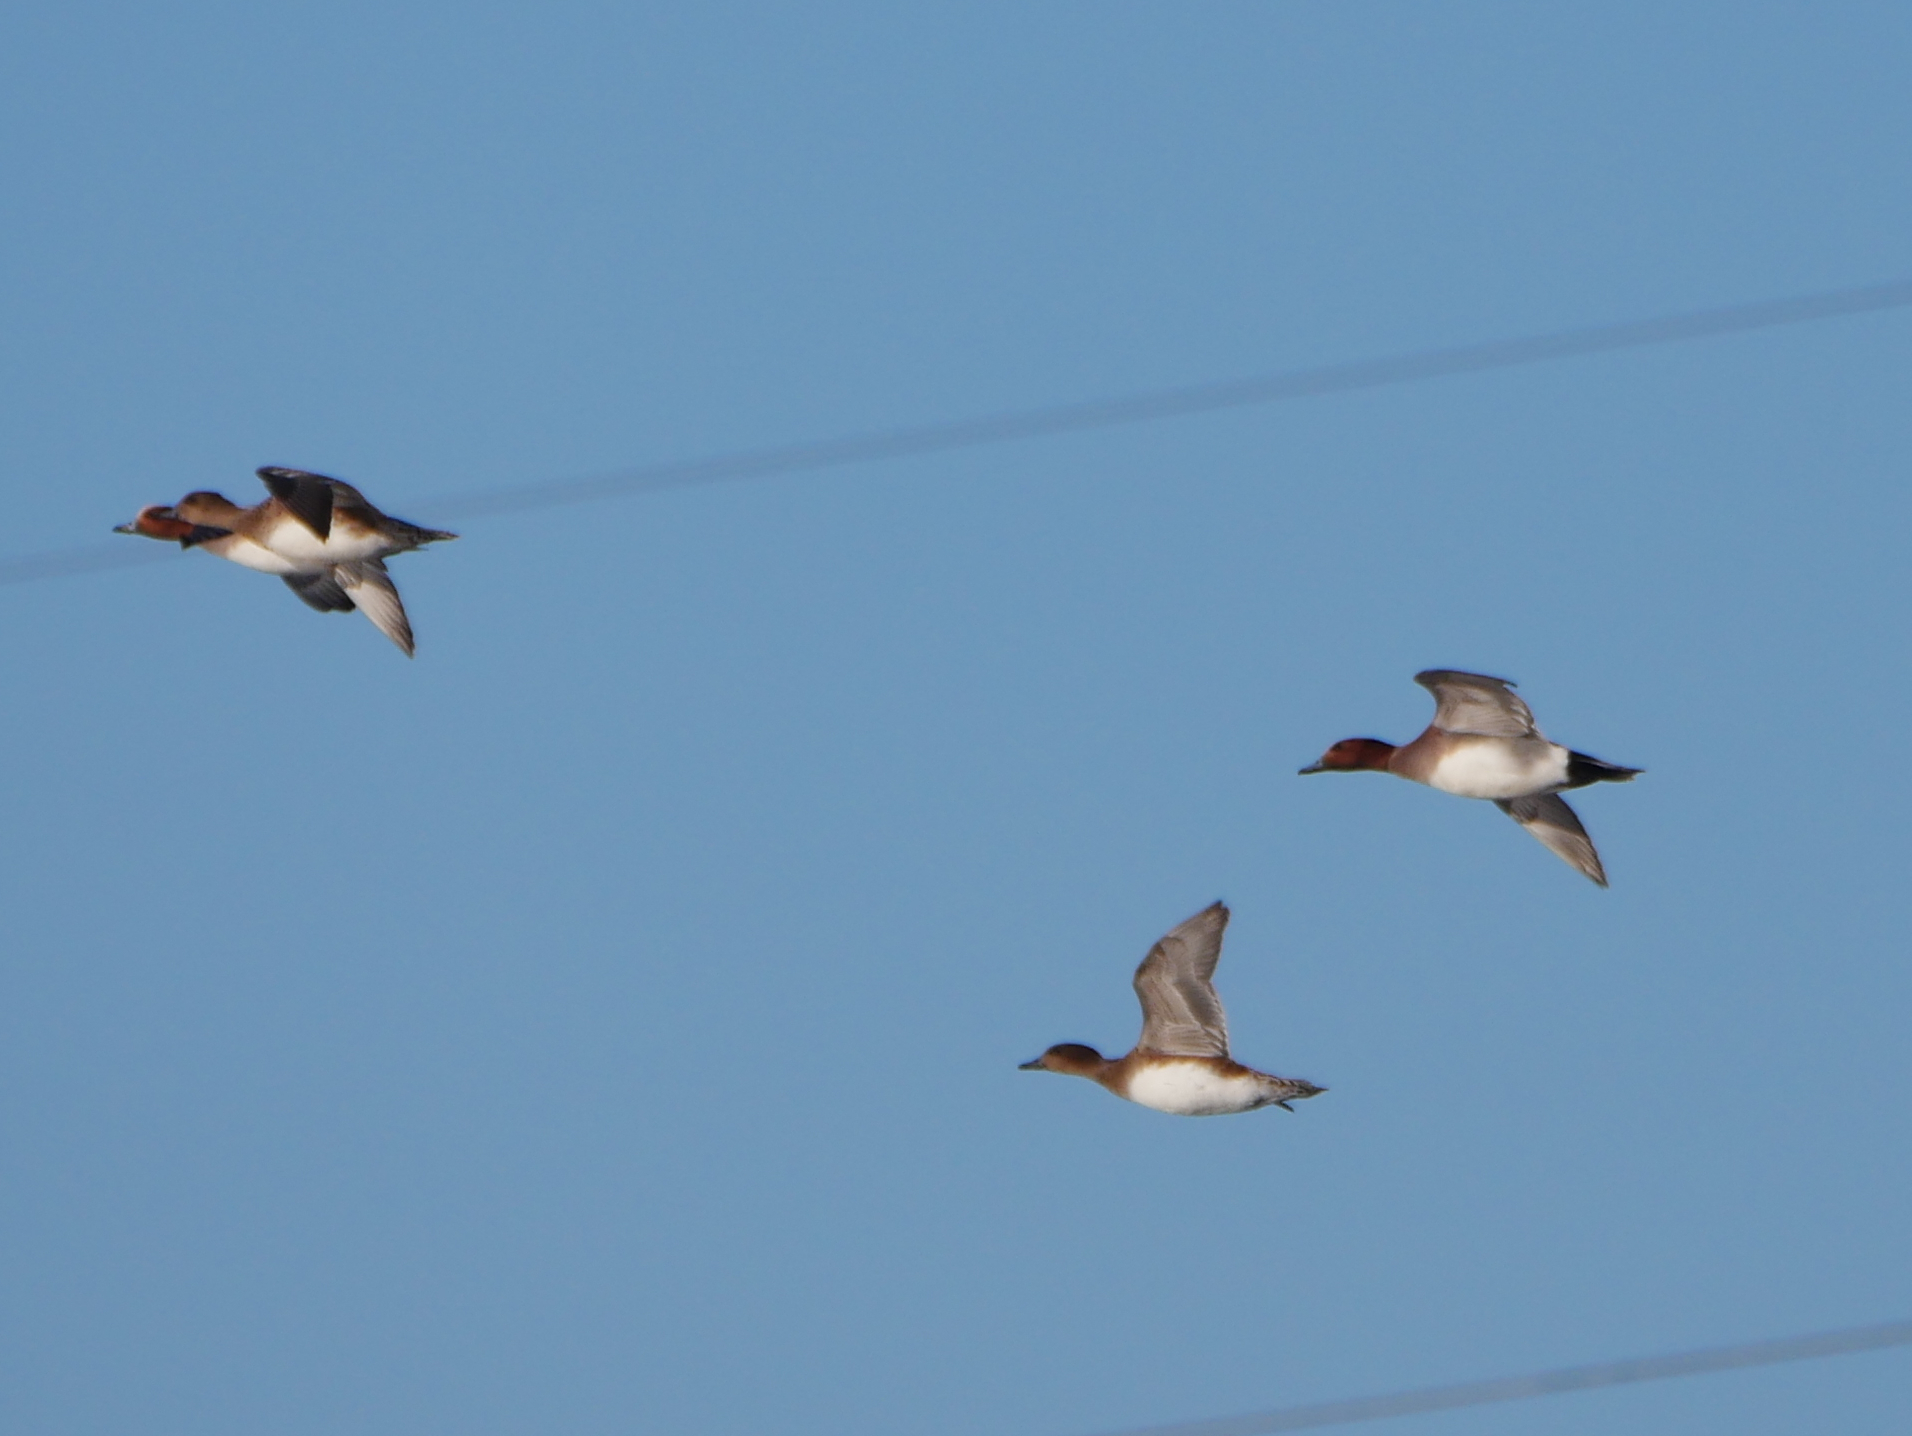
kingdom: Animalia
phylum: Chordata
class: Aves
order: Anseriformes
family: Anatidae
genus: Mareca
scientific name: Mareca penelope
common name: Eurasian wigeon
